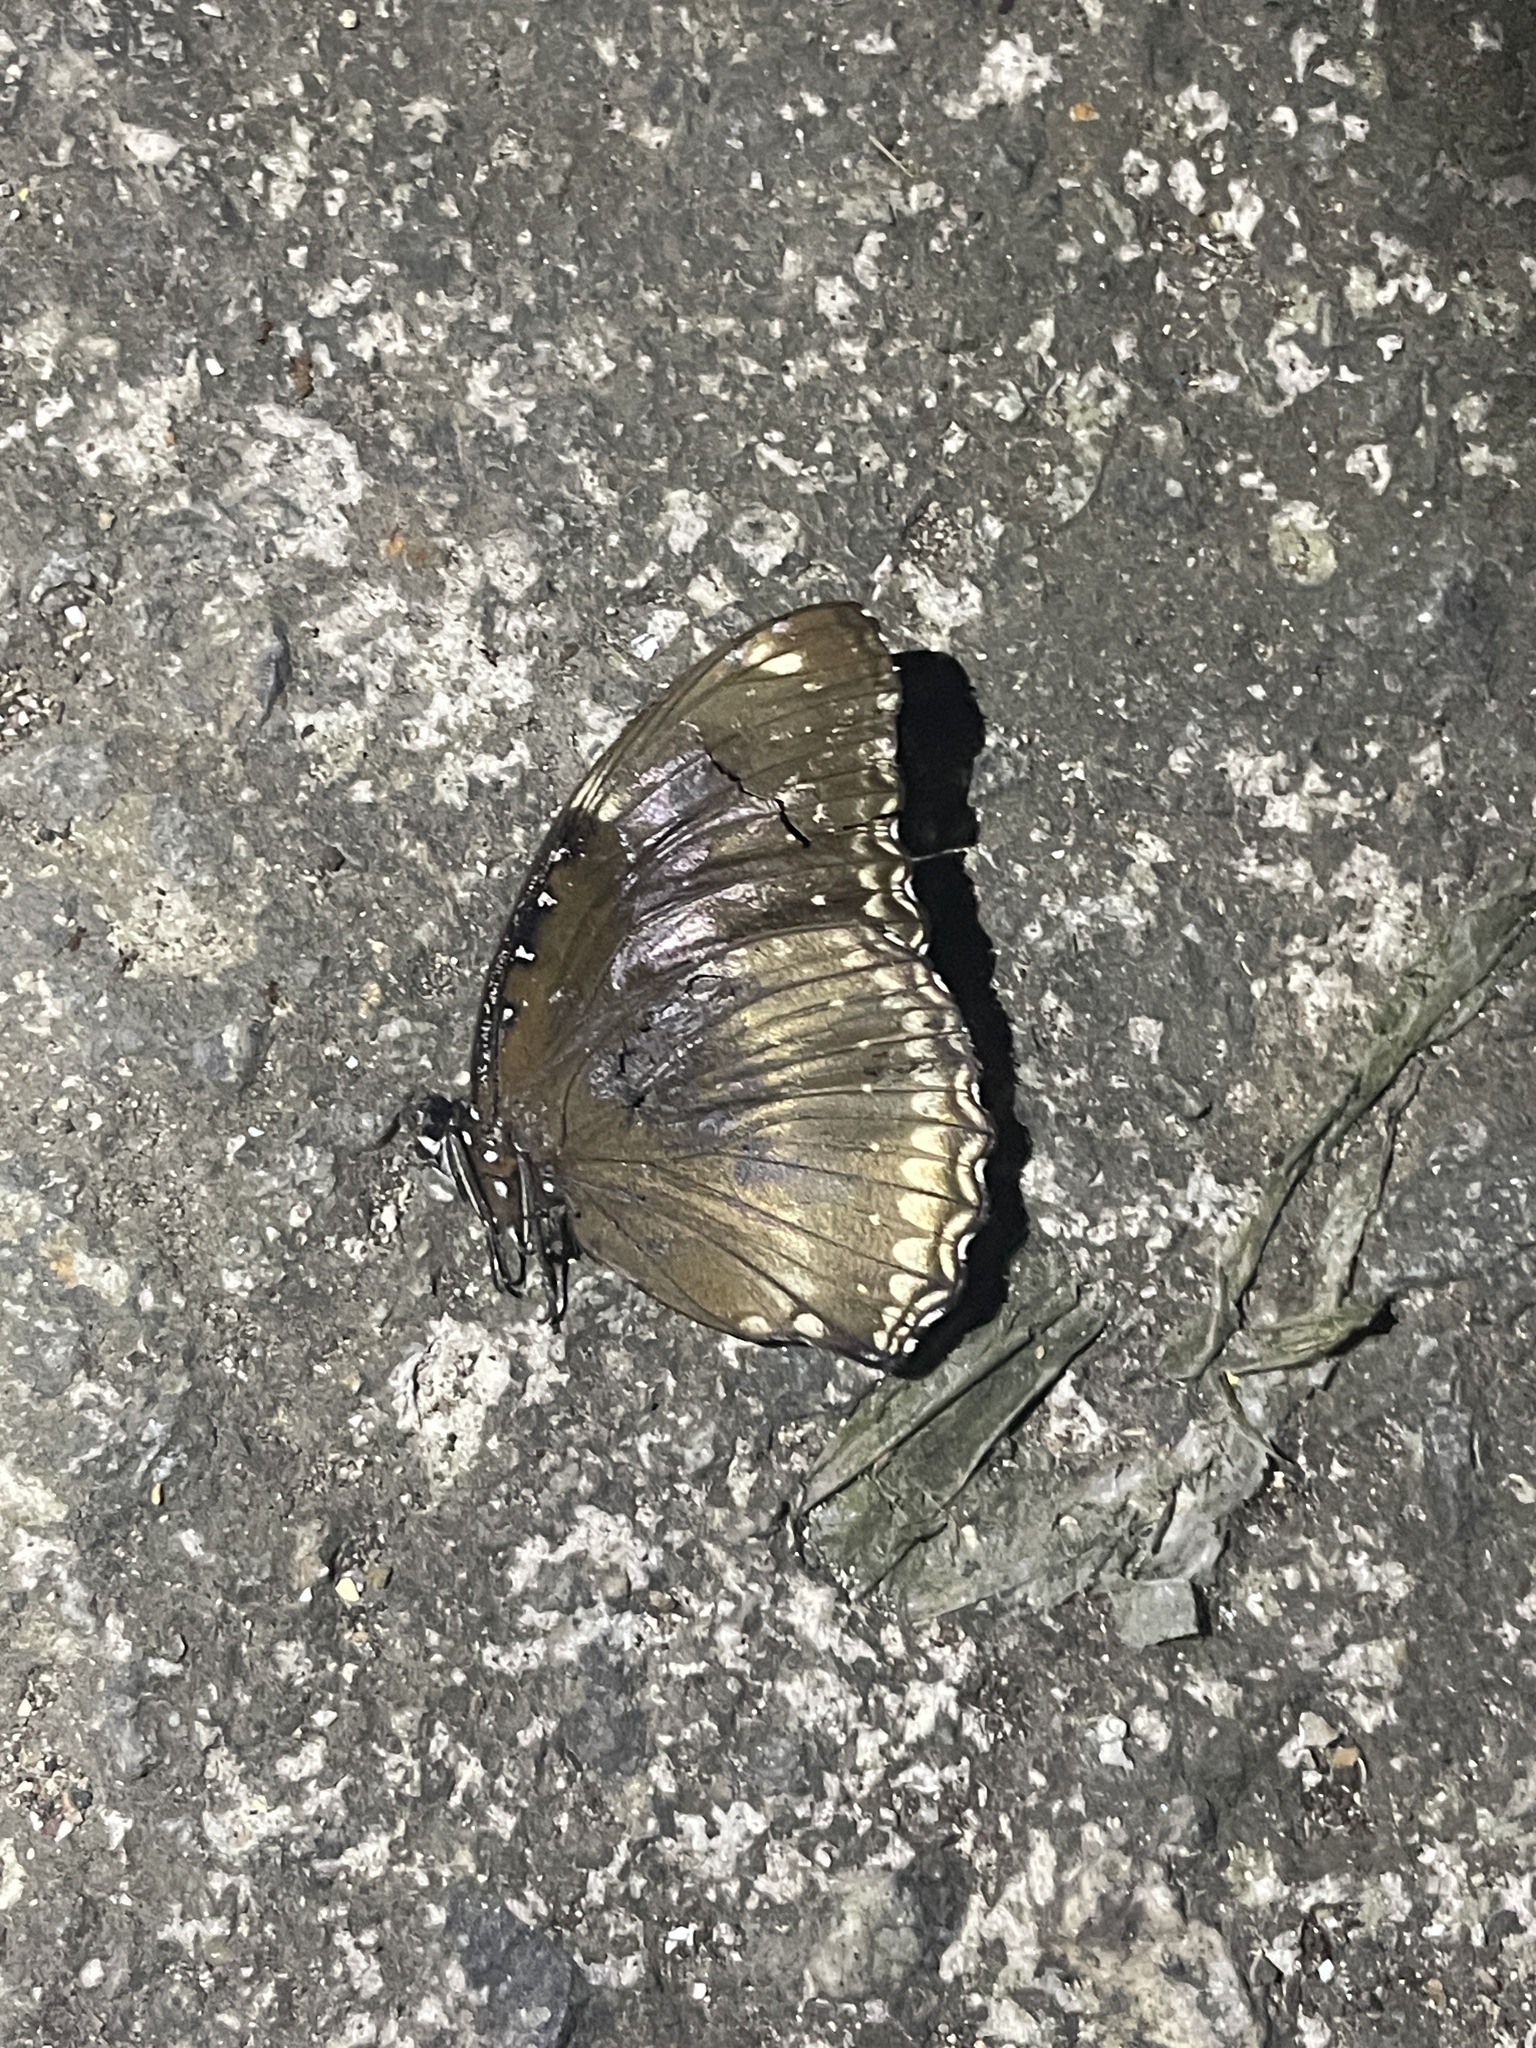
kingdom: Animalia
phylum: Arthropoda
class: Insecta
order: Lepidoptera
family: Nymphalidae
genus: Hypolimnas
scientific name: Hypolimnas bolina
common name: Great eggfly
